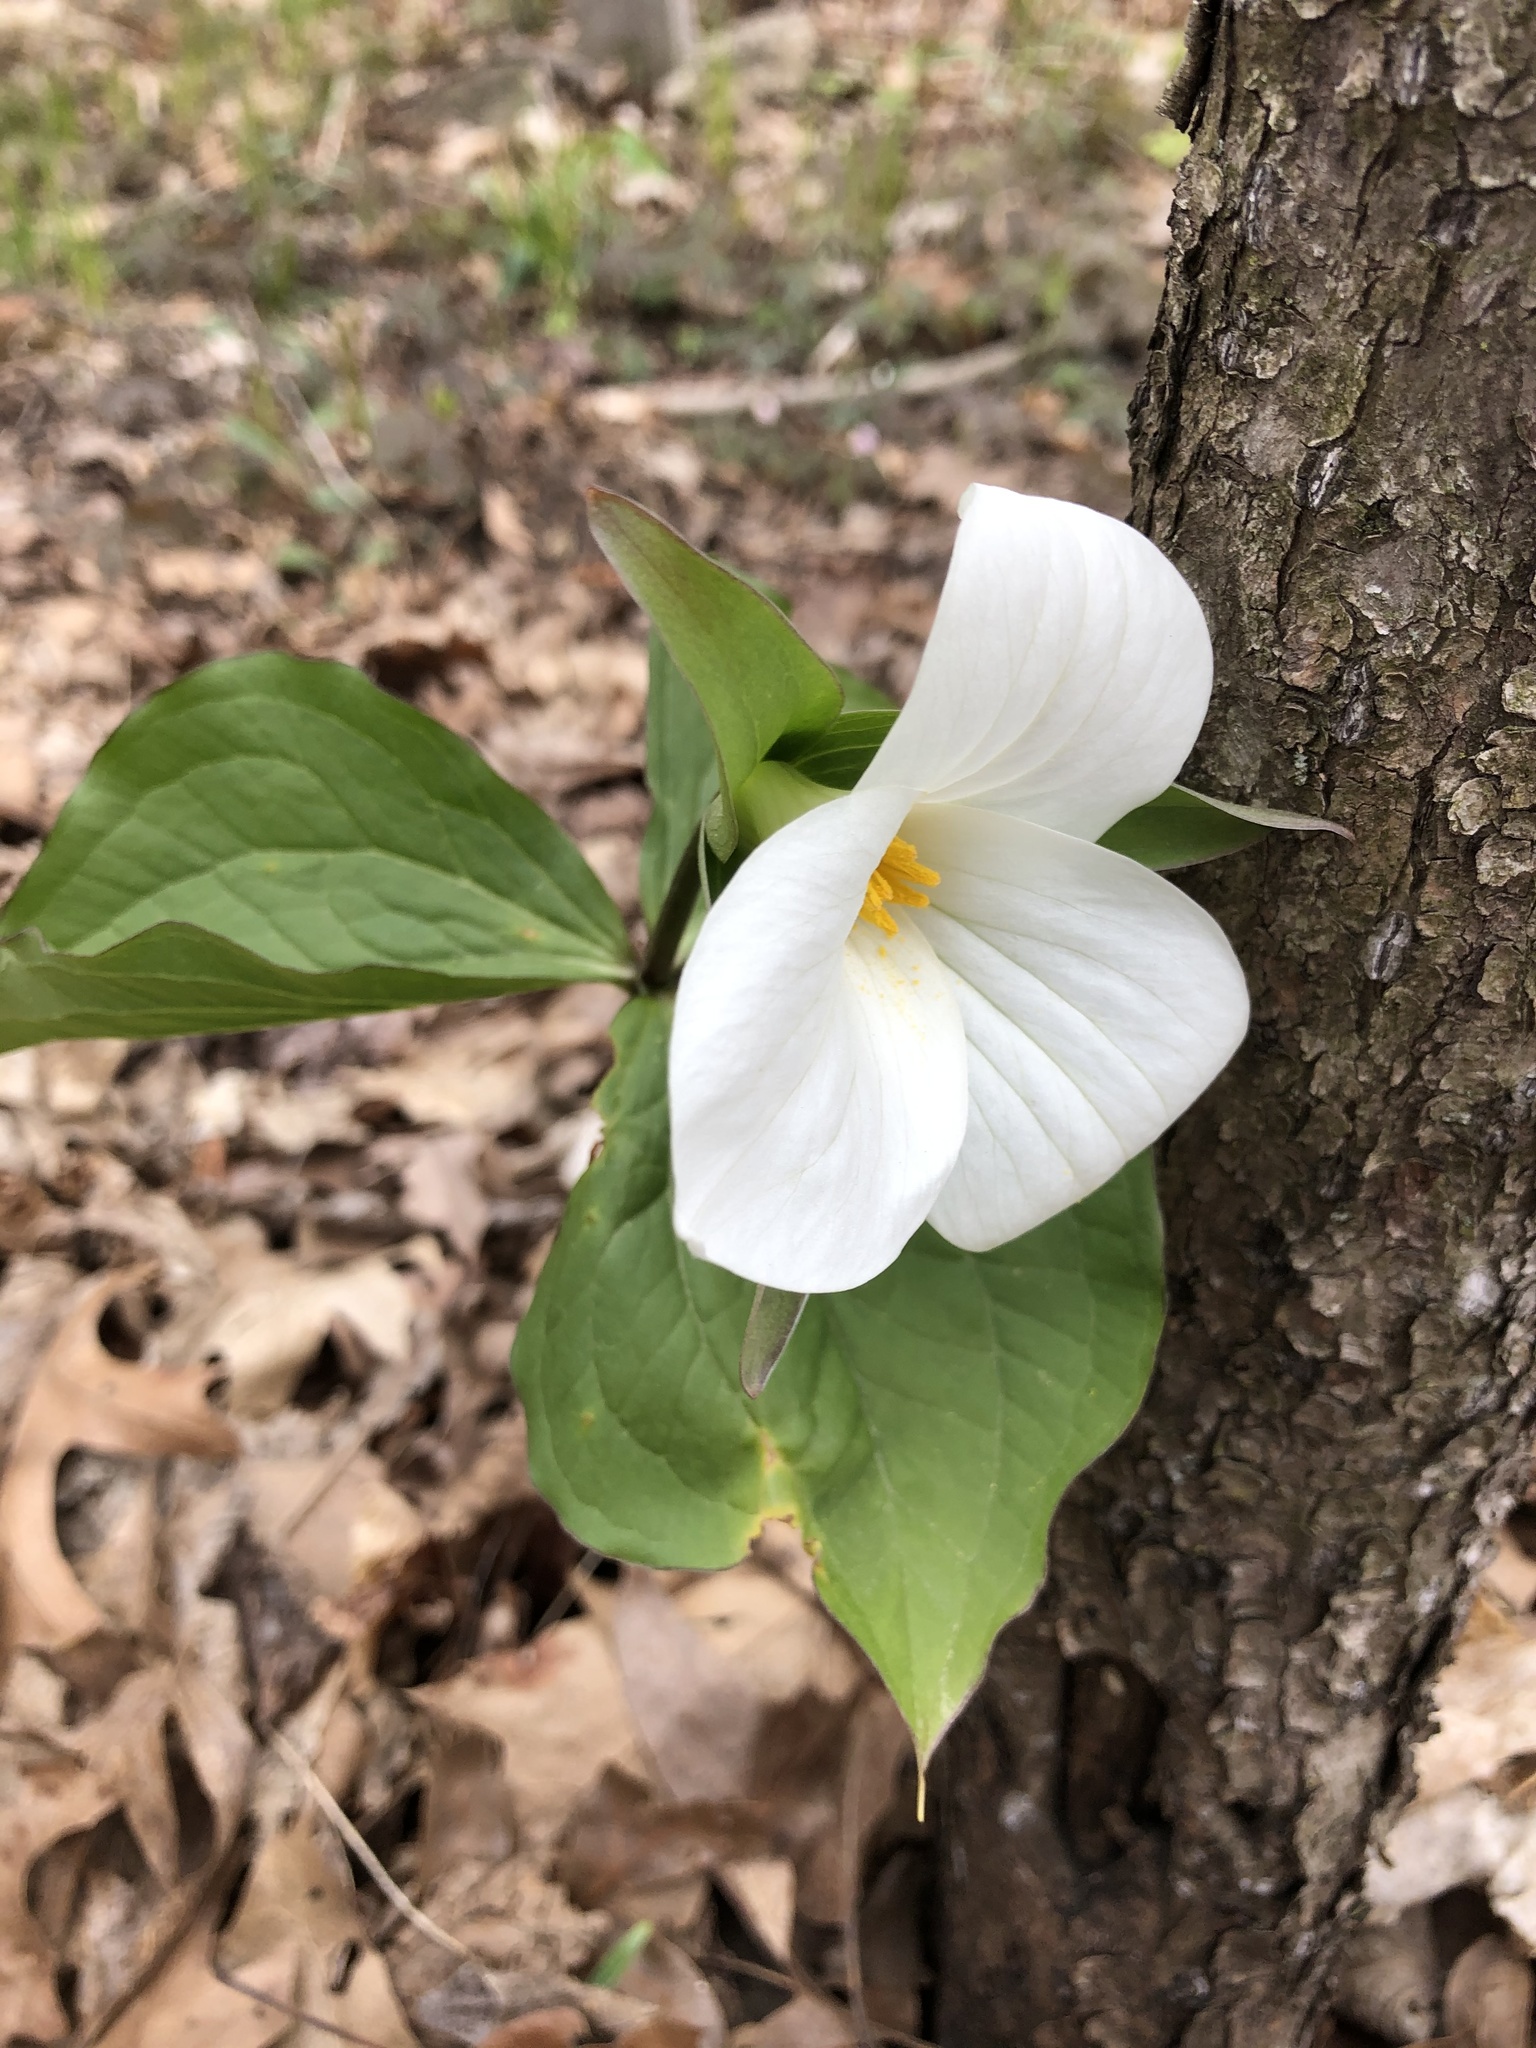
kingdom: Plantae
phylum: Tracheophyta
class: Liliopsida
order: Liliales
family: Melanthiaceae
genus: Trillium
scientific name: Trillium grandiflorum
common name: Great white trillium
